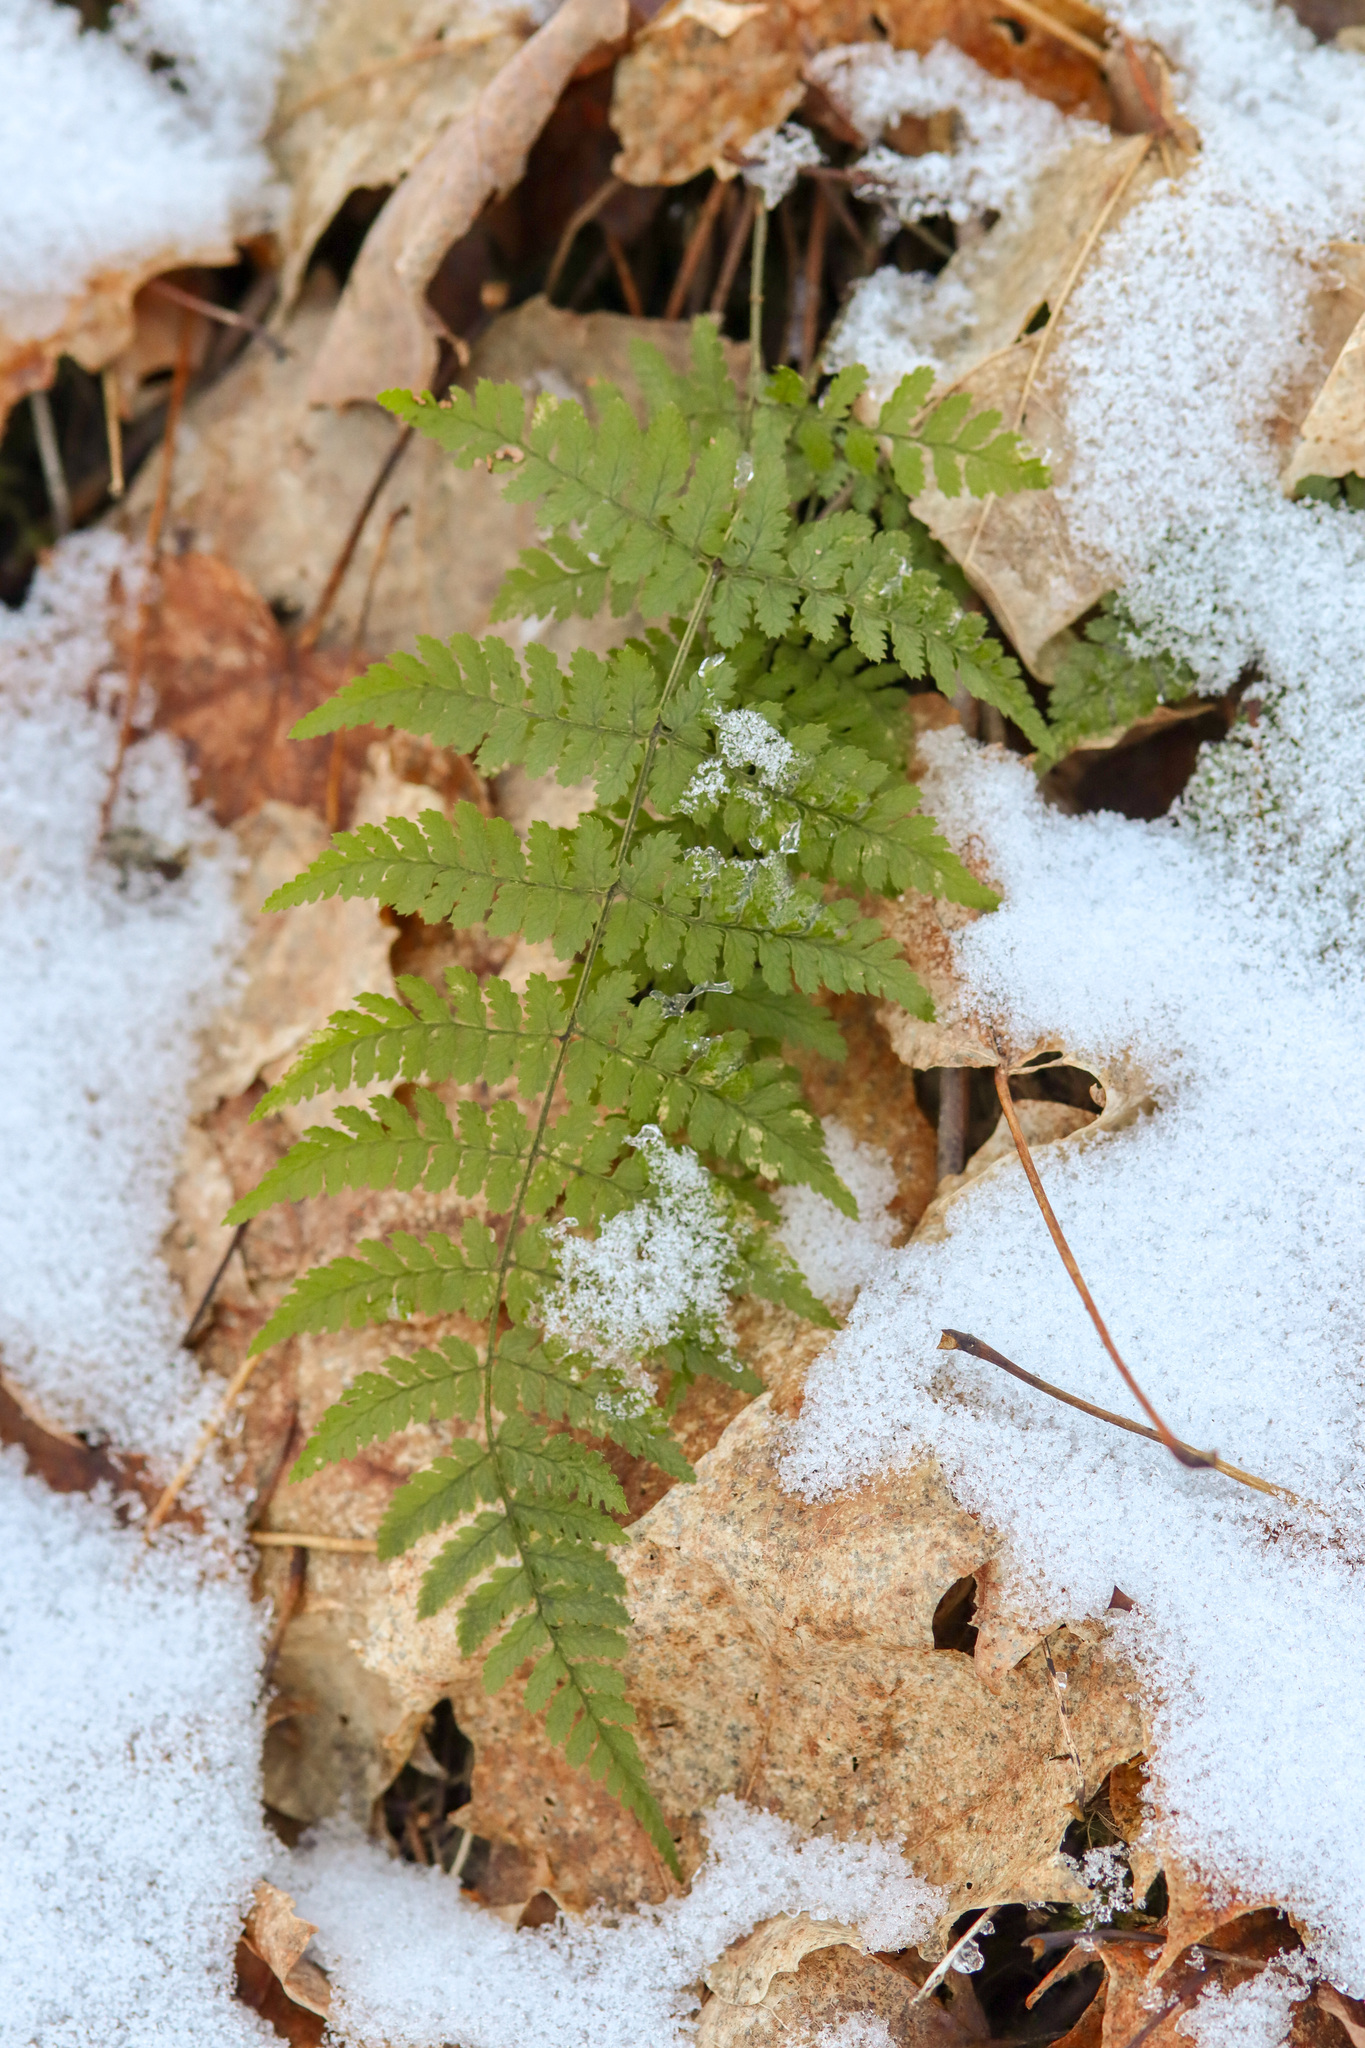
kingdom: Plantae
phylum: Tracheophyta
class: Polypodiopsida
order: Polypodiales
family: Dryopteridaceae
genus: Dryopteris
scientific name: Dryopteris intermedia
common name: Evergreen wood fern
